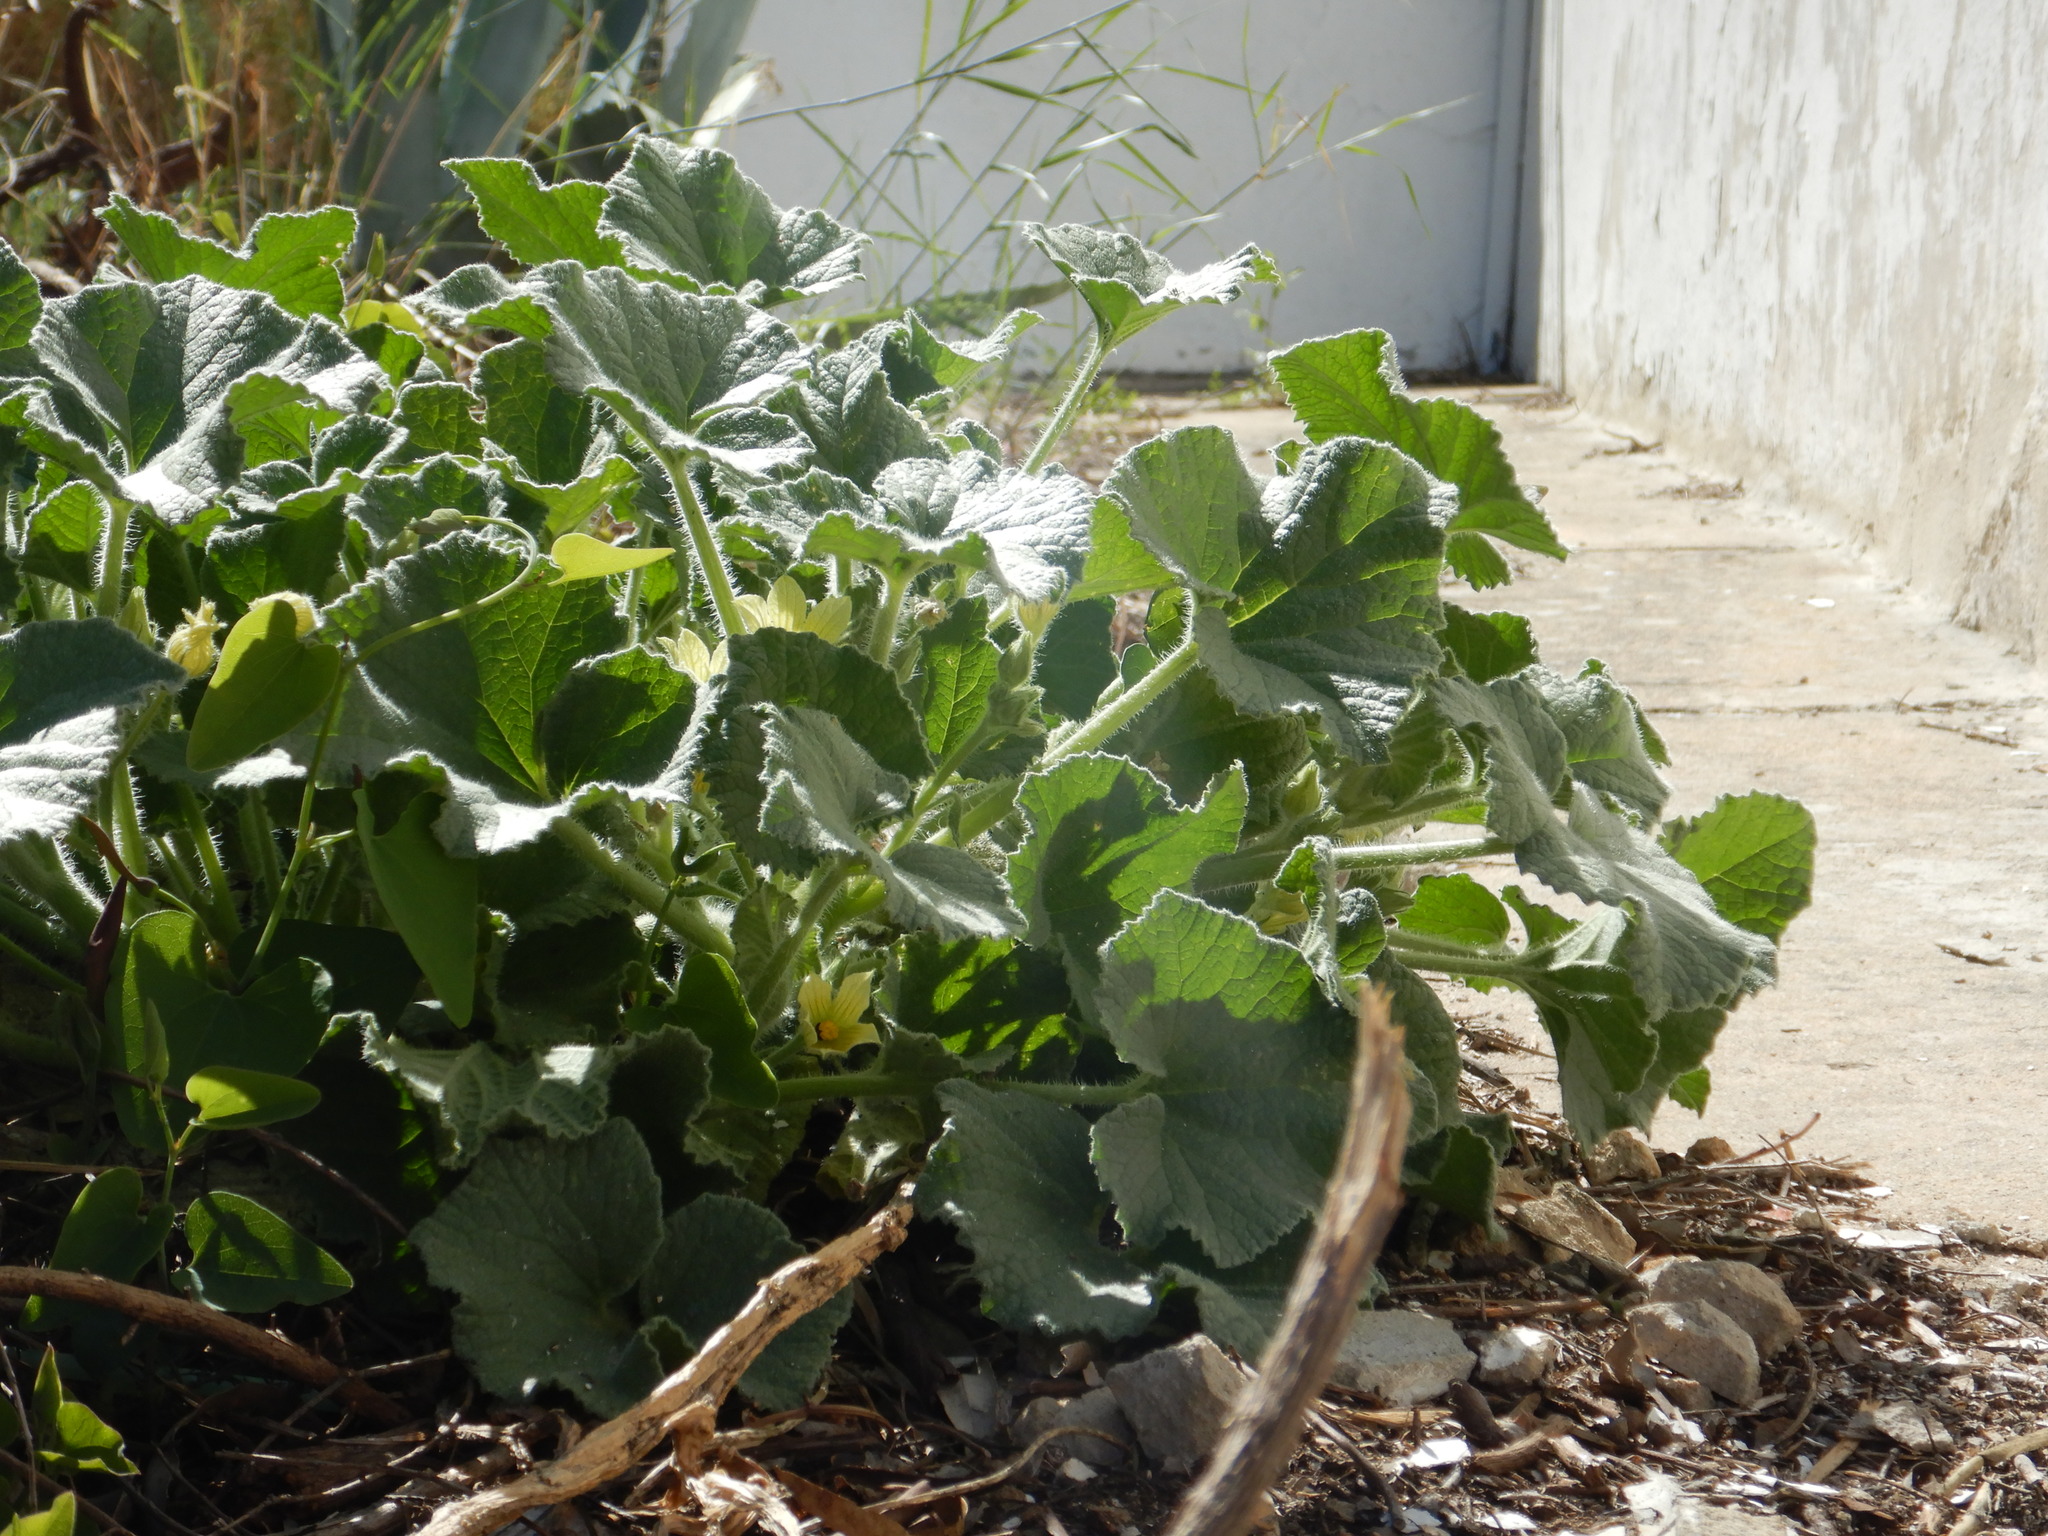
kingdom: Plantae
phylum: Tracheophyta
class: Magnoliopsida
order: Cucurbitales
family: Cucurbitaceae
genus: Ecballium
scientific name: Ecballium elaterium
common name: Squirting cucumber
